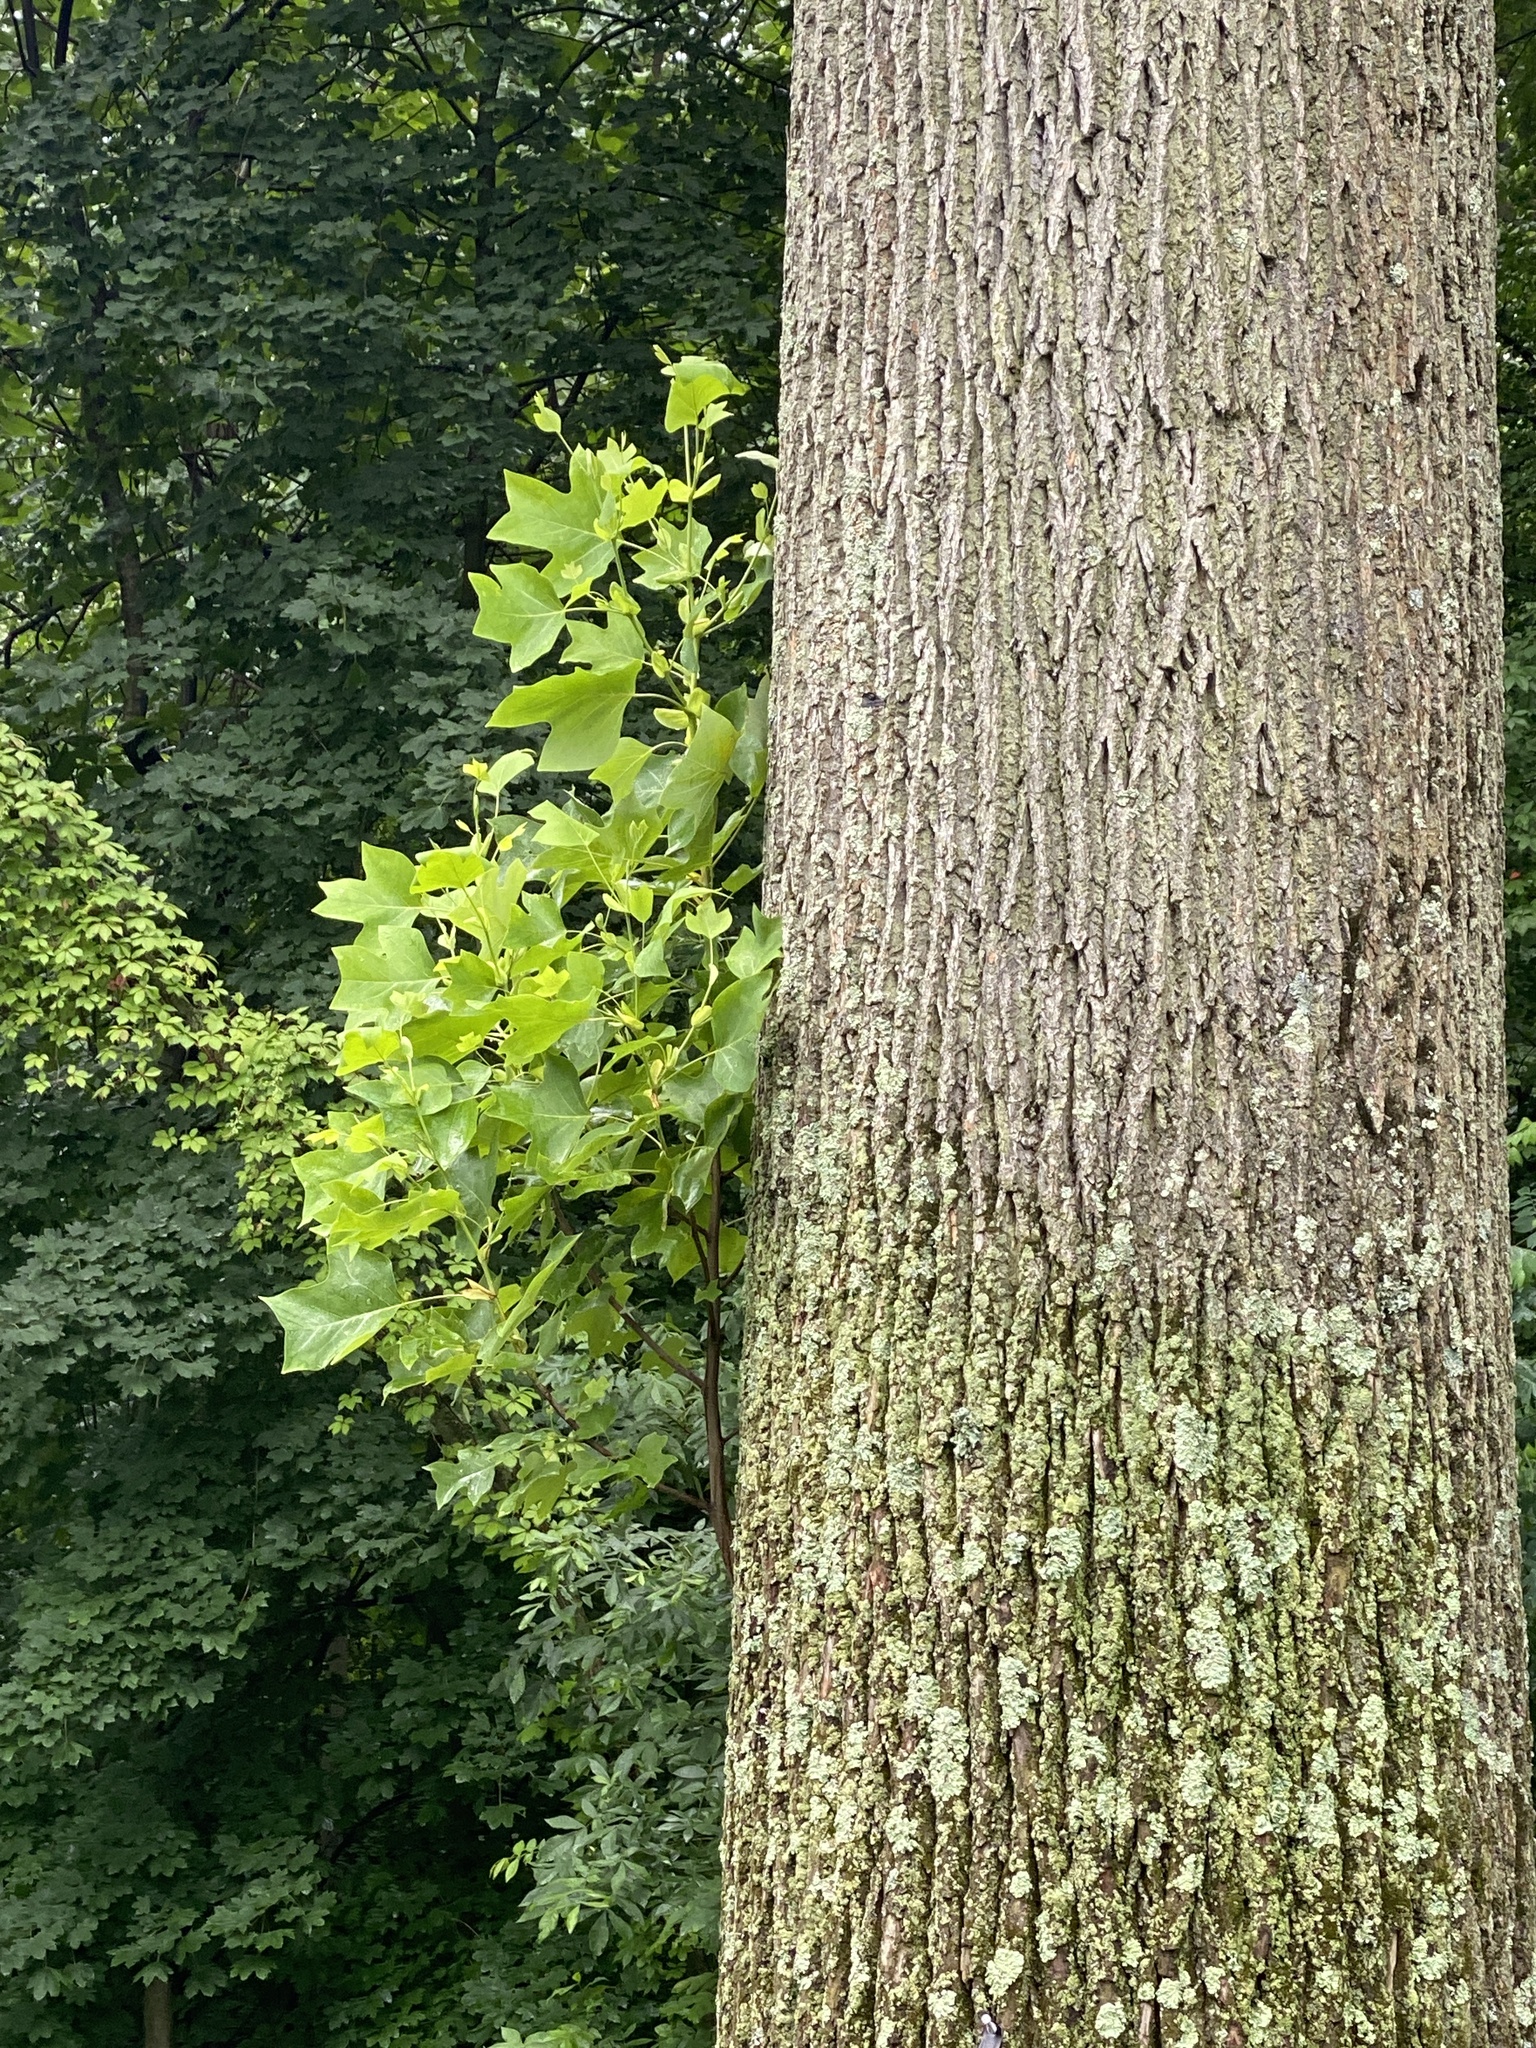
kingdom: Plantae
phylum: Tracheophyta
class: Magnoliopsida
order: Magnoliales
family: Magnoliaceae
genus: Liriodendron
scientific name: Liriodendron tulipifera
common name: Tulip tree
